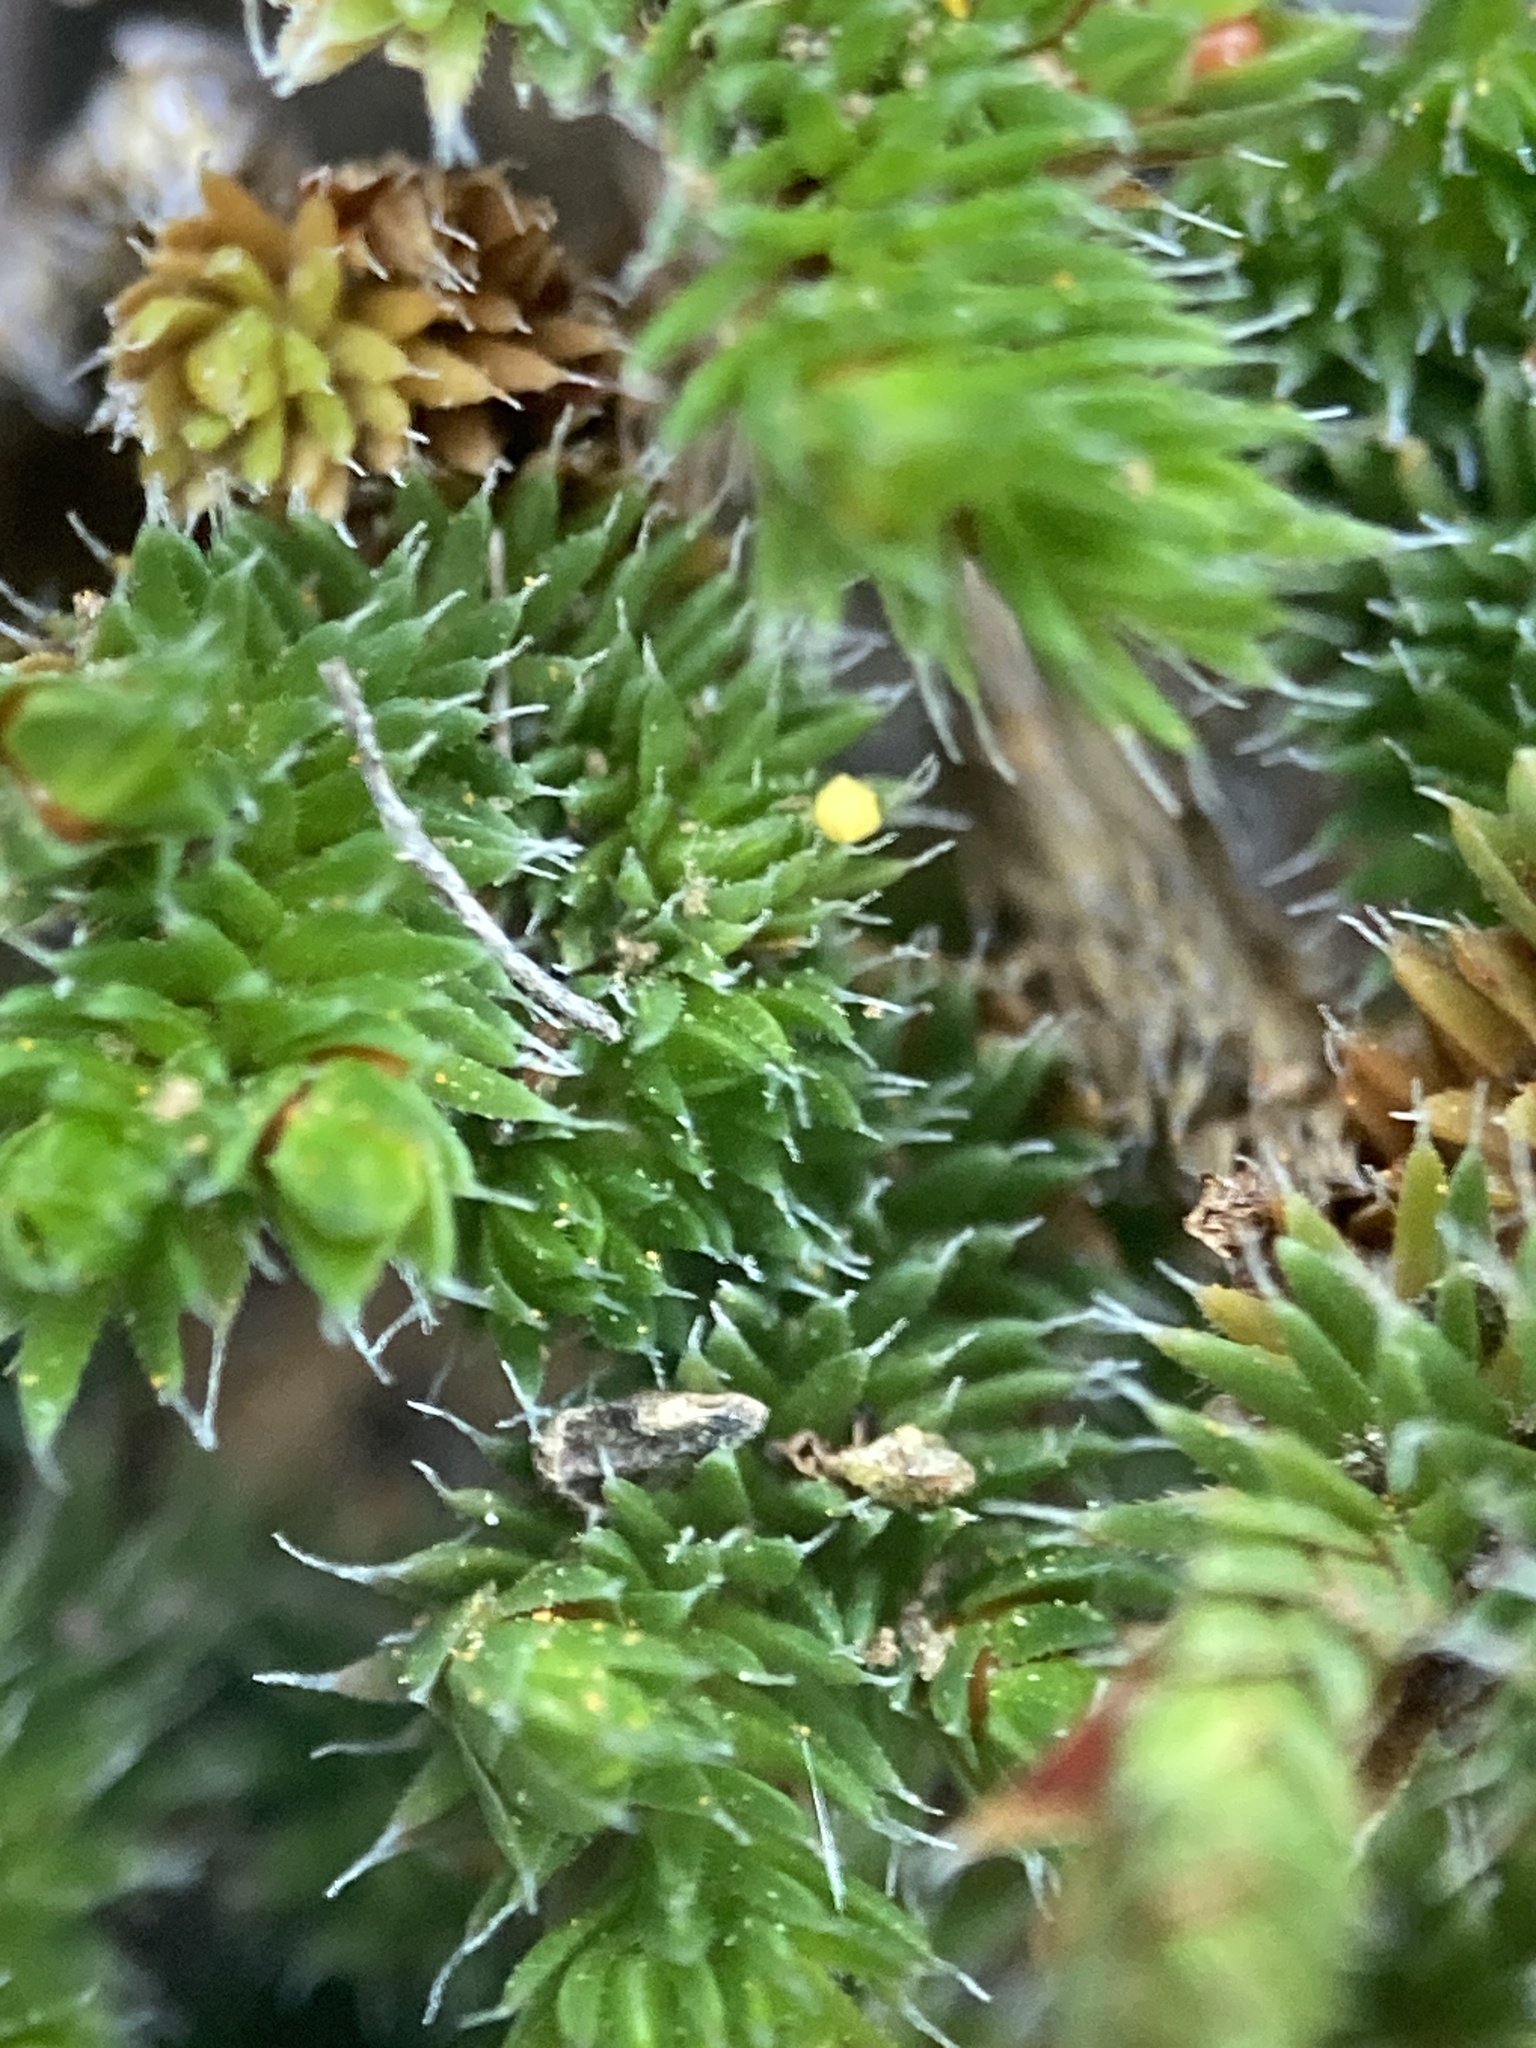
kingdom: Plantae
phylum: Tracheophyta
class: Lycopodiopsida
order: Selaginellales
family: Selaginellaceae
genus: Selaginella
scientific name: Selaginella hansenii
